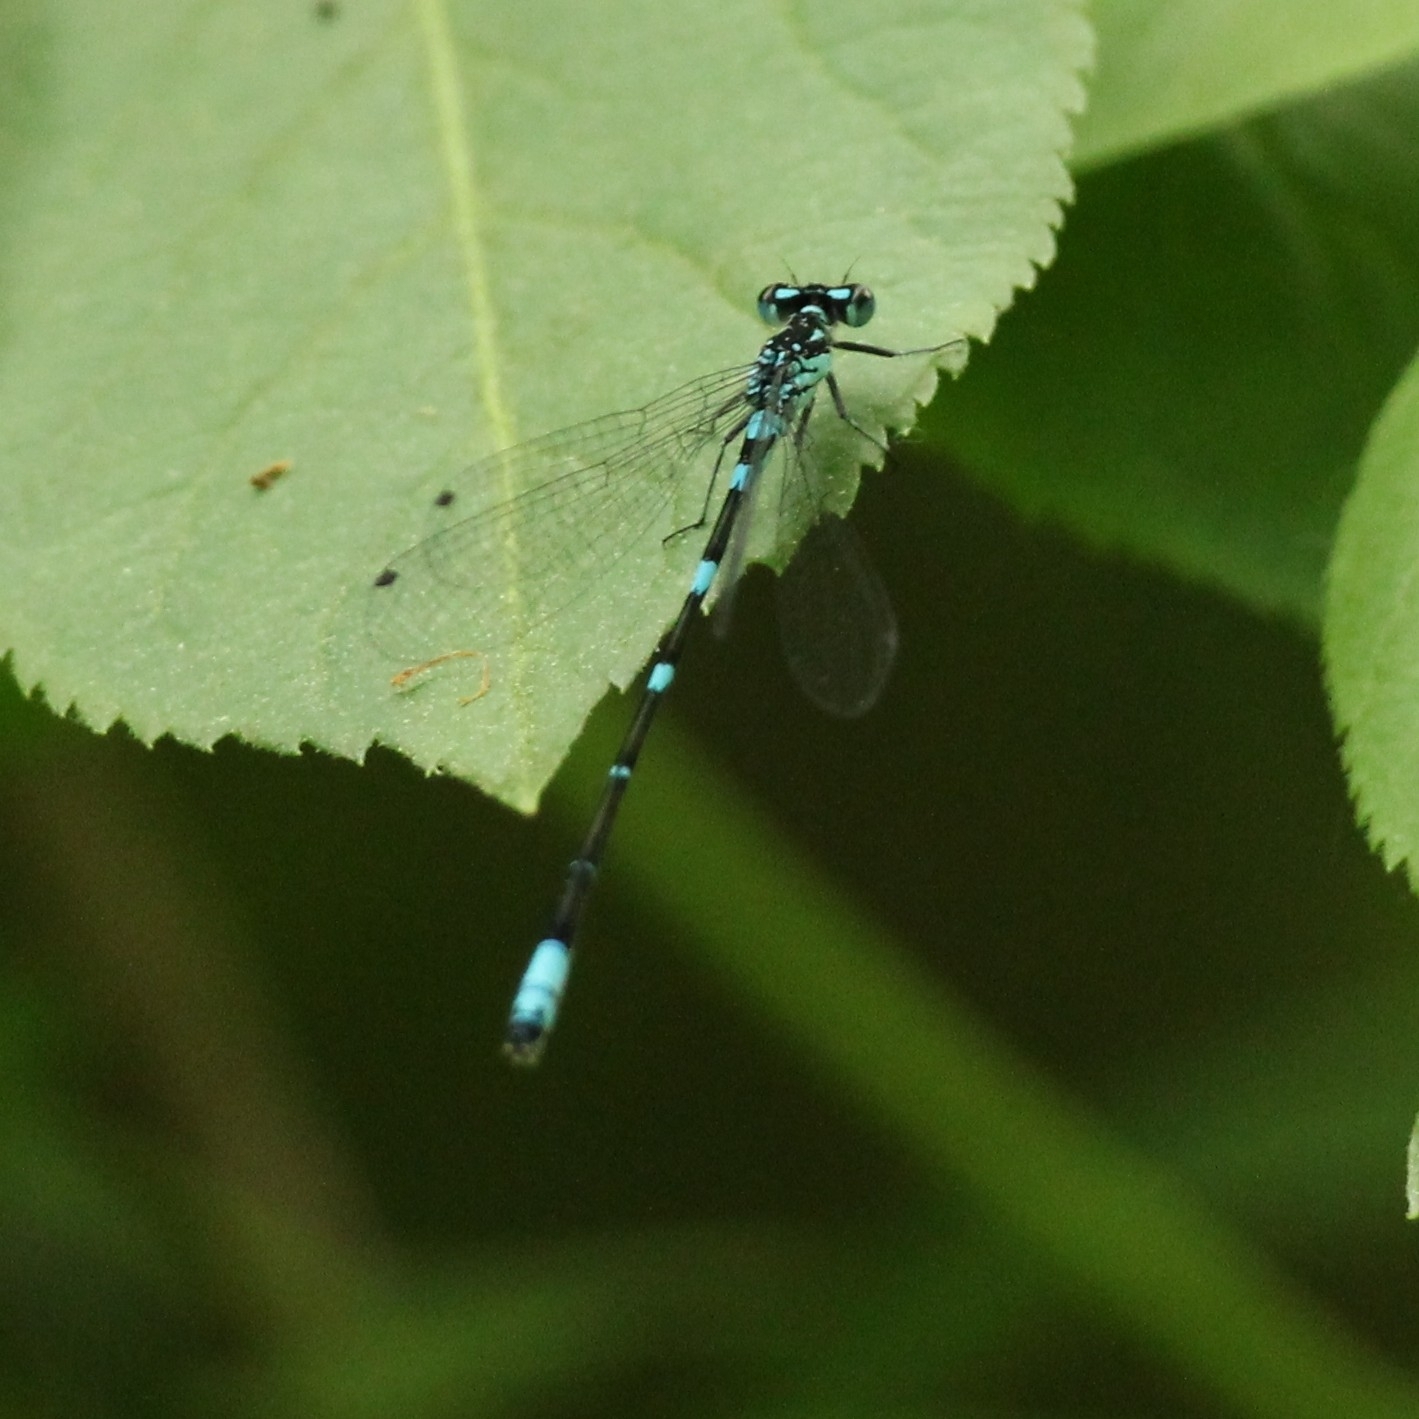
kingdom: Animalia
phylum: Arthropoda
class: Insecta
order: Odonata
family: Coenagrionidae
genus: Coenagrion
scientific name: Coenagrion pulchellum
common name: Variable bluet
